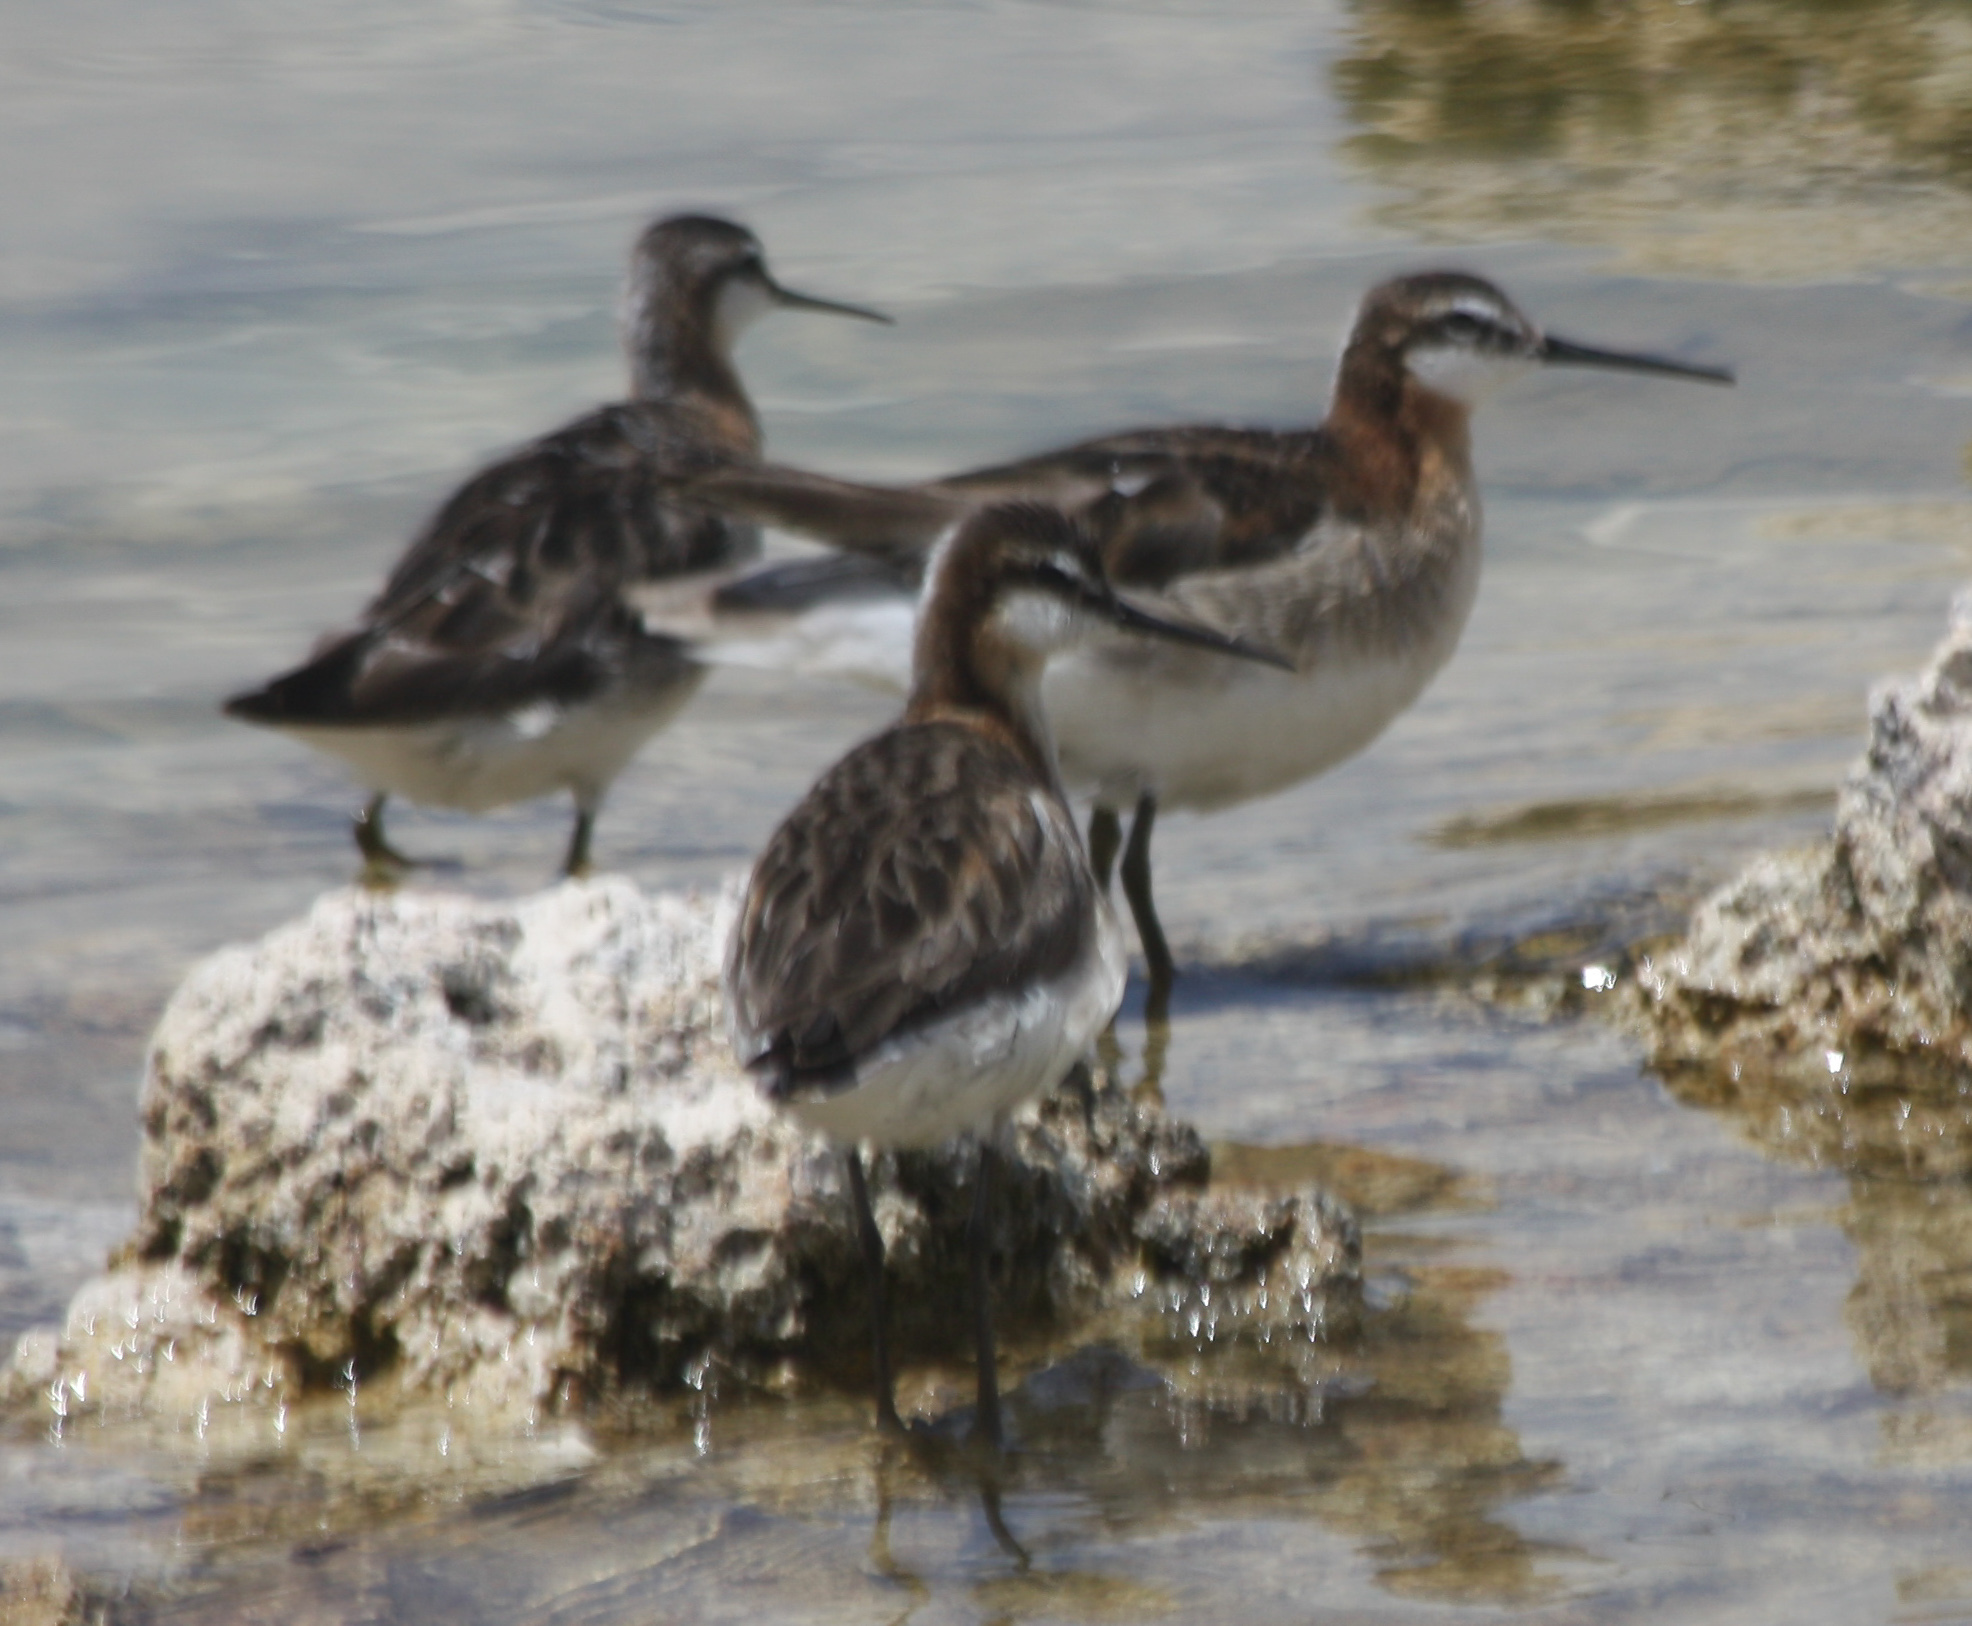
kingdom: Animalia
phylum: Chordata
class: Aves
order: Charadriiformes
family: Scolopacidae
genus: Phalaropus
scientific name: Phalaropus tricolor
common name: Wilson's phalarope
